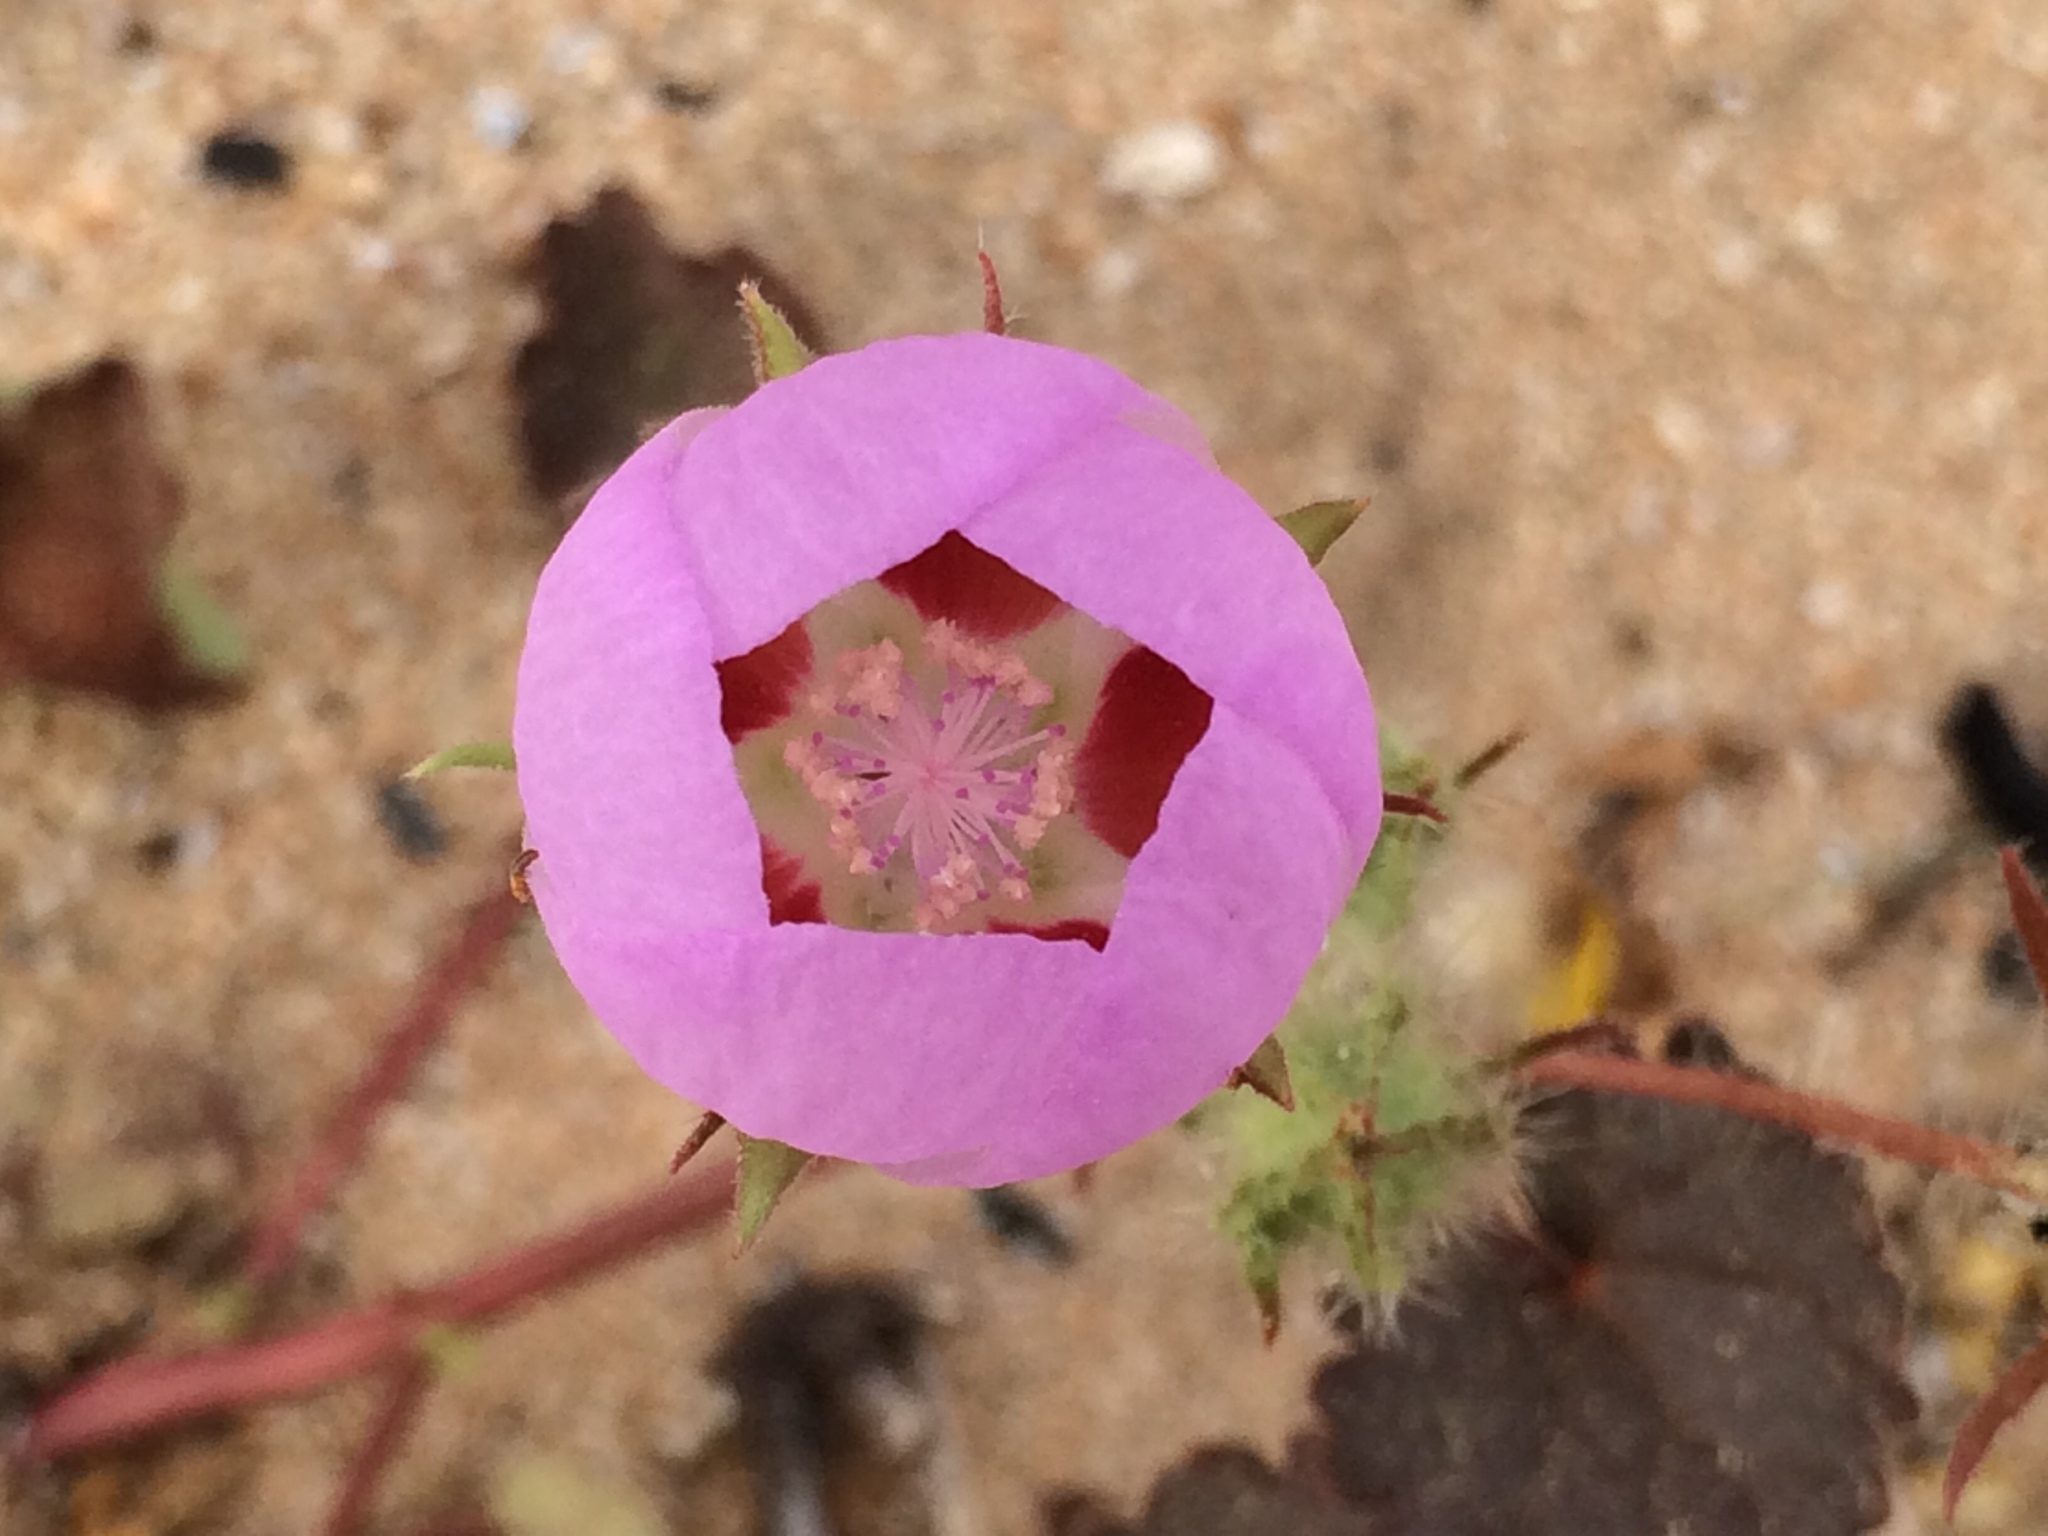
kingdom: Plantae
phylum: Tracheophyta
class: Magnoliopsida
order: Malvales
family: Malvaceae
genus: Eremalche
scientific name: Eremalche rotundifolia
